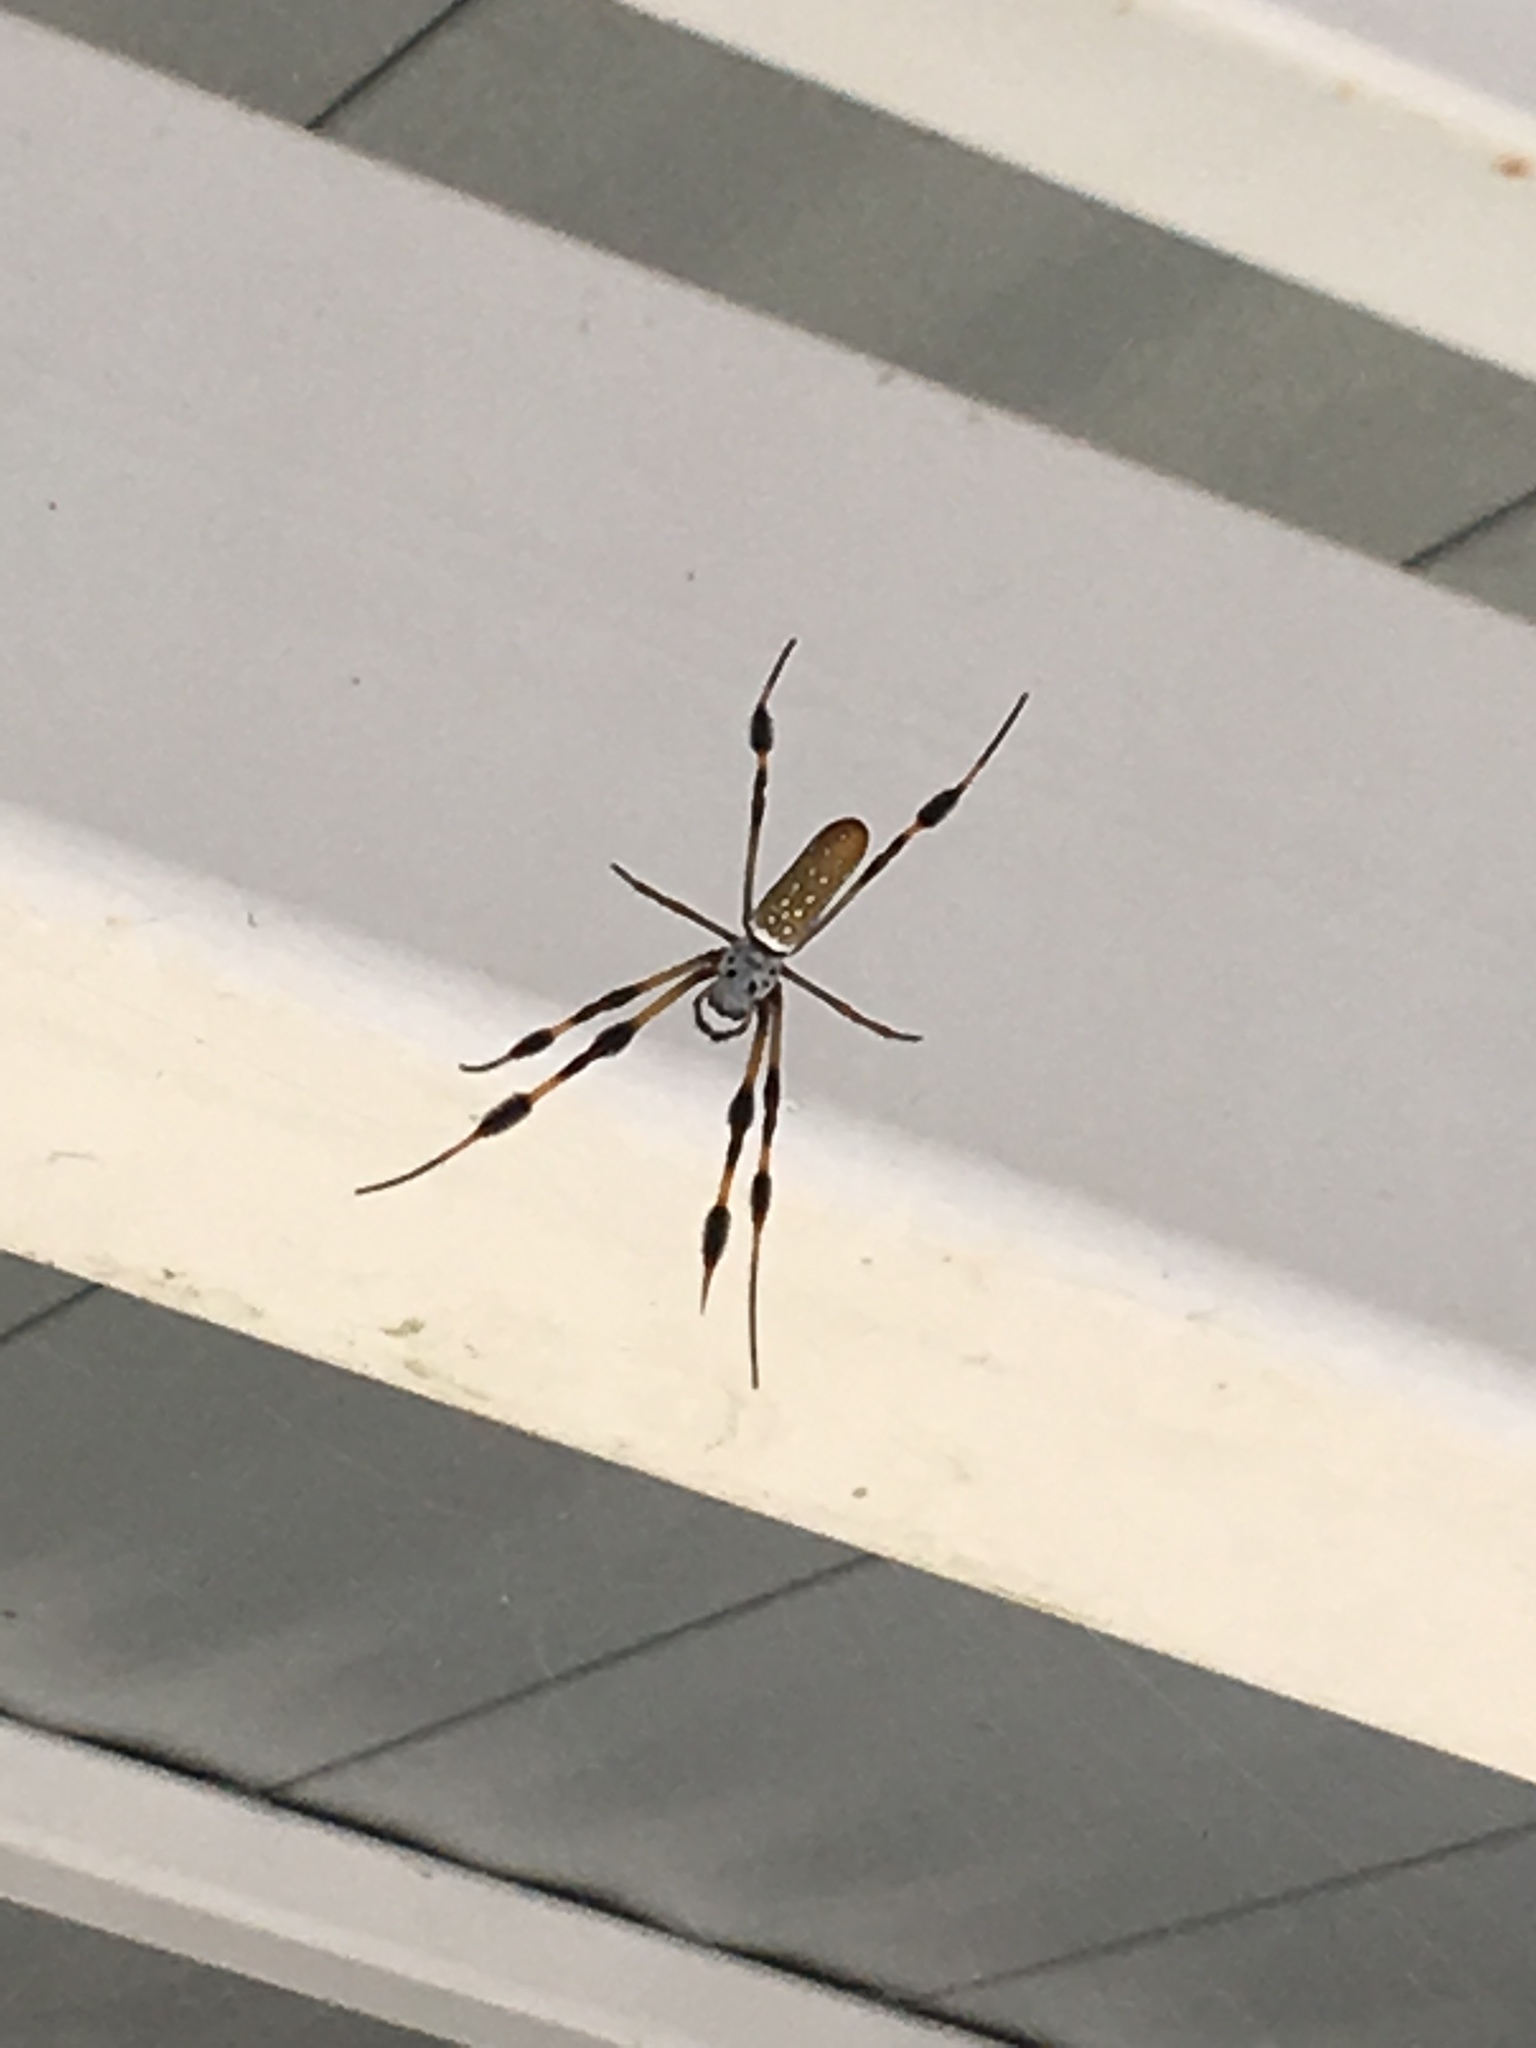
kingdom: Animalia
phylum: Arthropoda
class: Arachnida
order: Araneae
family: Araneidae
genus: Trichonephila
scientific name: Trichonephila clavipes
